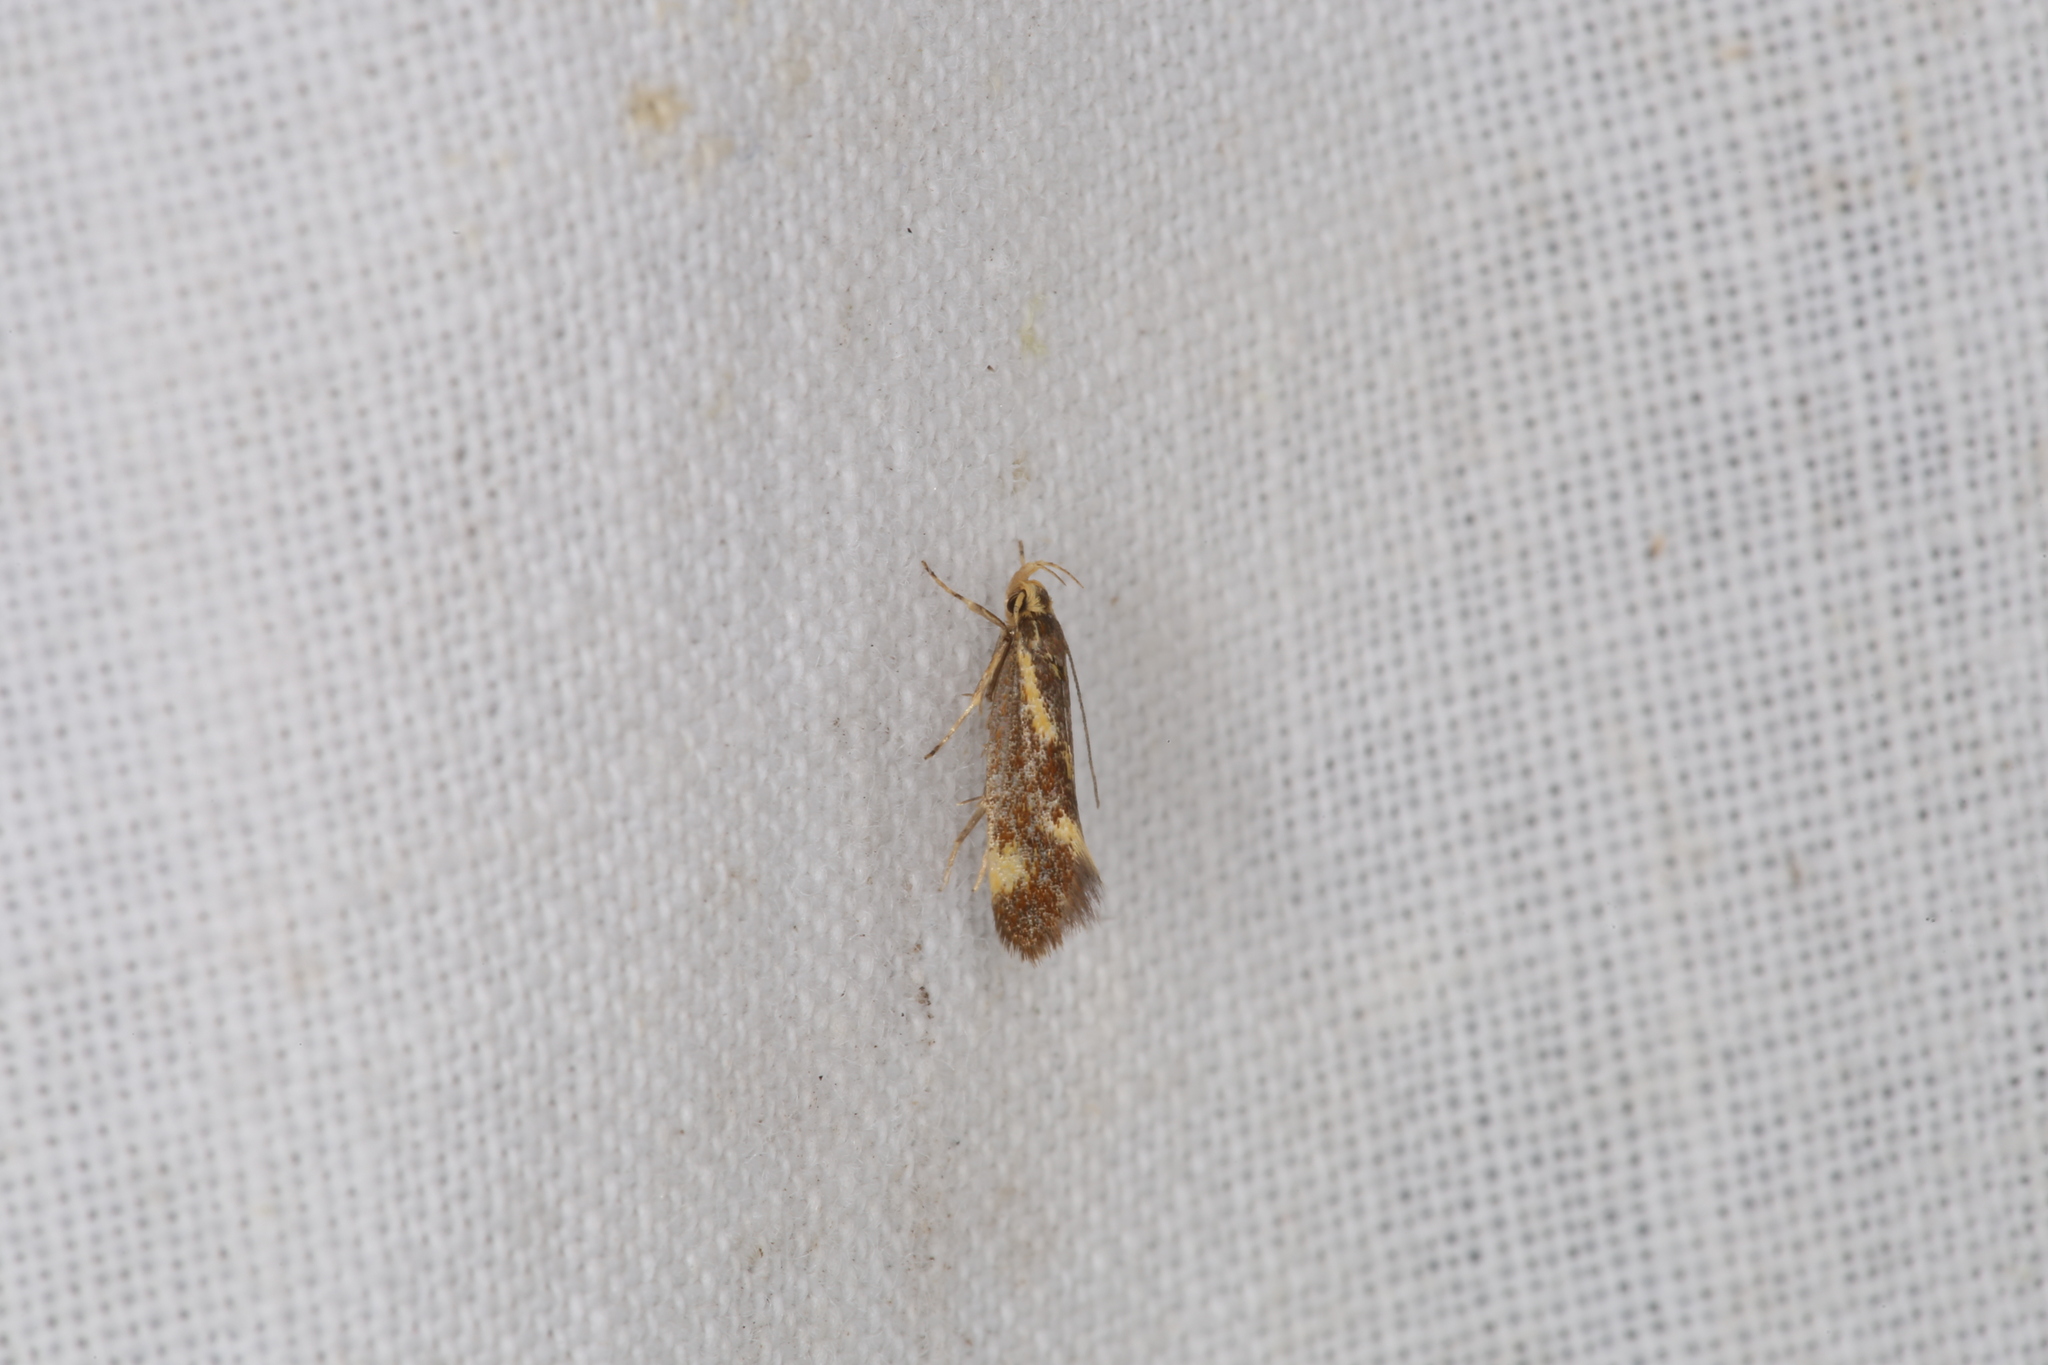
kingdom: Animalia
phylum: Arthropoda
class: Insecta
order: Lepidoptera
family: Oecophoridae
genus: Borkhausenia
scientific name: Borkhausenia cinnamomea
